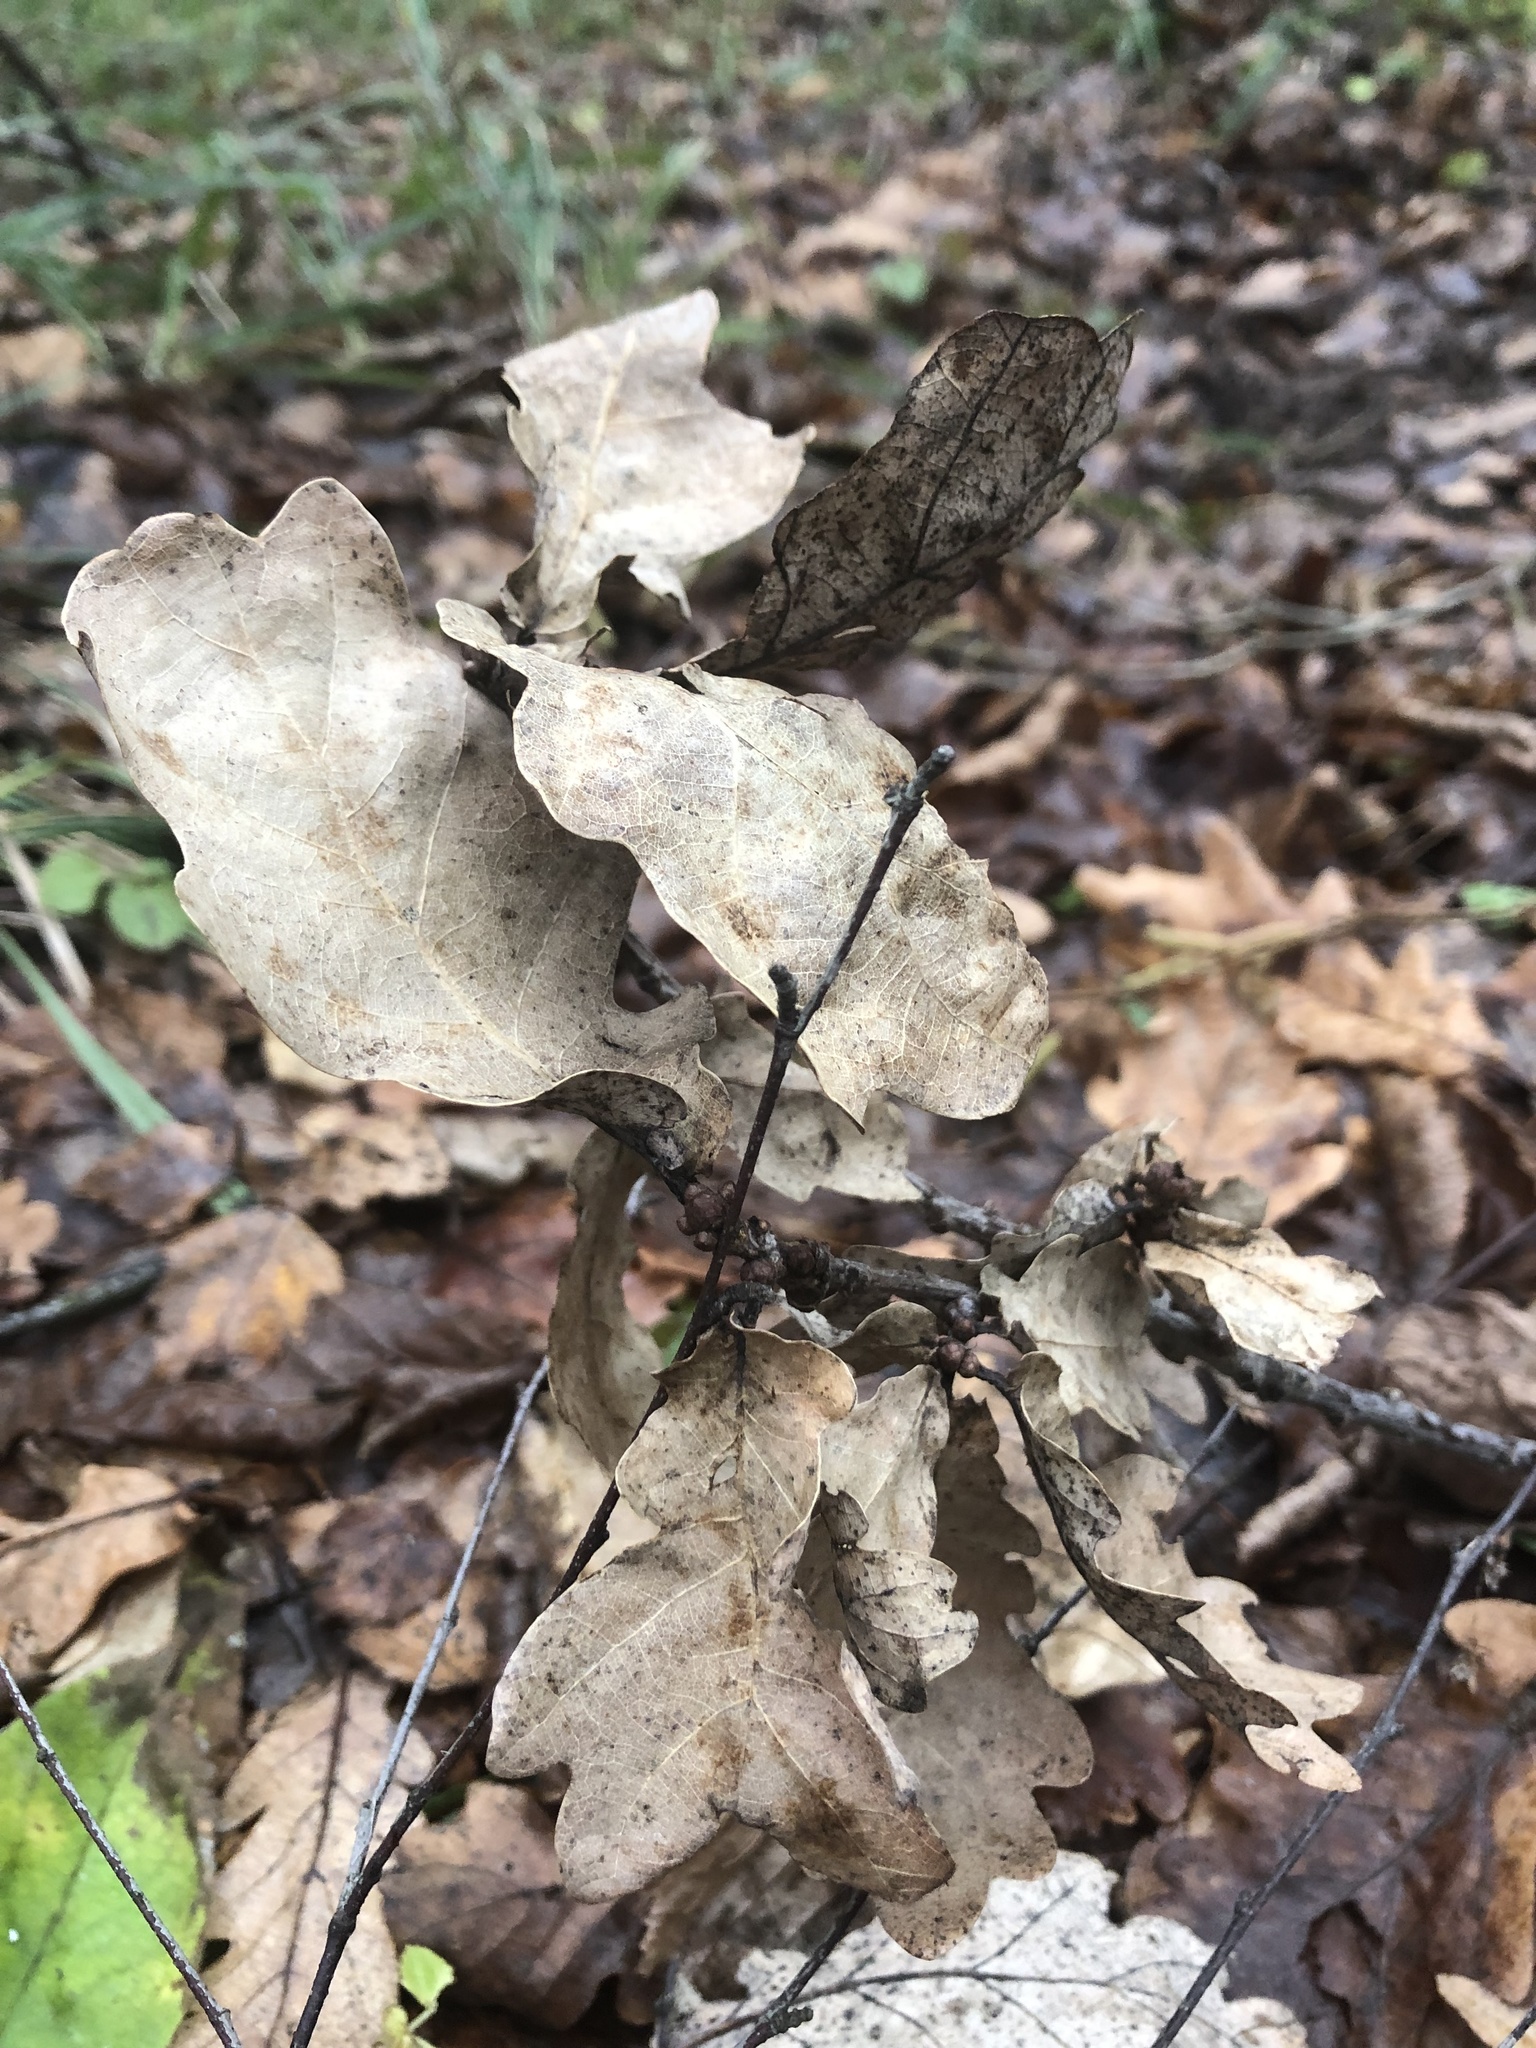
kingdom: Plantae
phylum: Tracheophyta
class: Magnoliopsida
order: Fagales
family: Fagaceae
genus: Quercus
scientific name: Quercus robur
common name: Pedunculate oak
